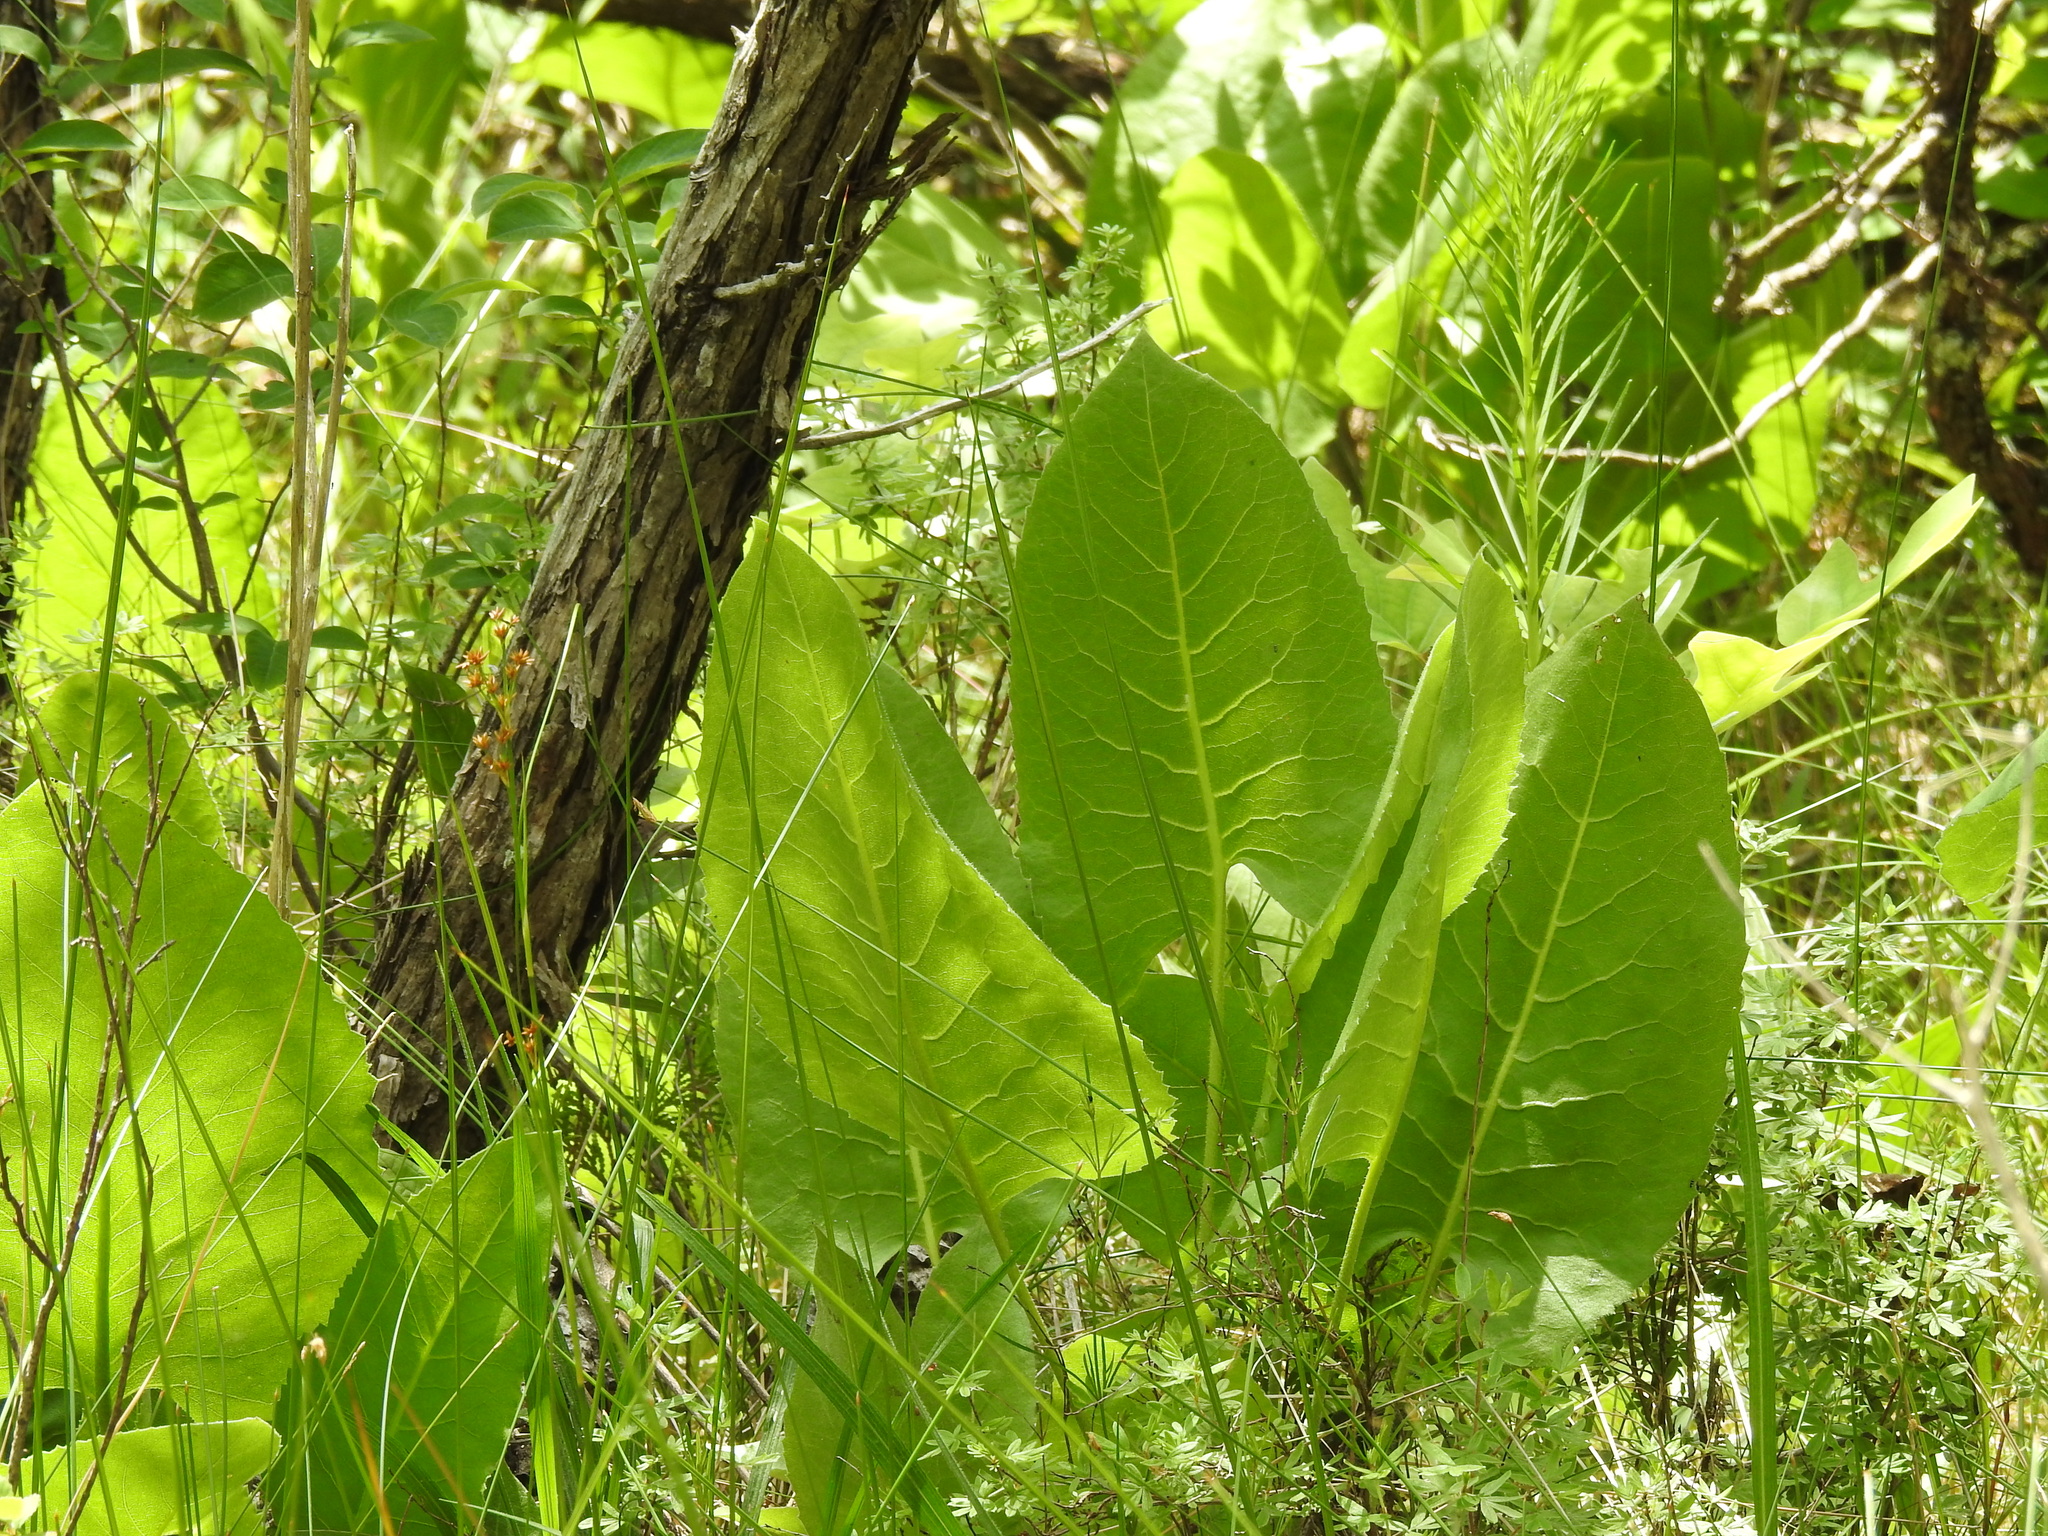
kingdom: Plantae
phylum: Tracheophyta
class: Magnoliopsida
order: Asterales
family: Asteraceae
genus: Silphium
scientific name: Silphium terebinthinaceum
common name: Basal-leaf rosinweed
